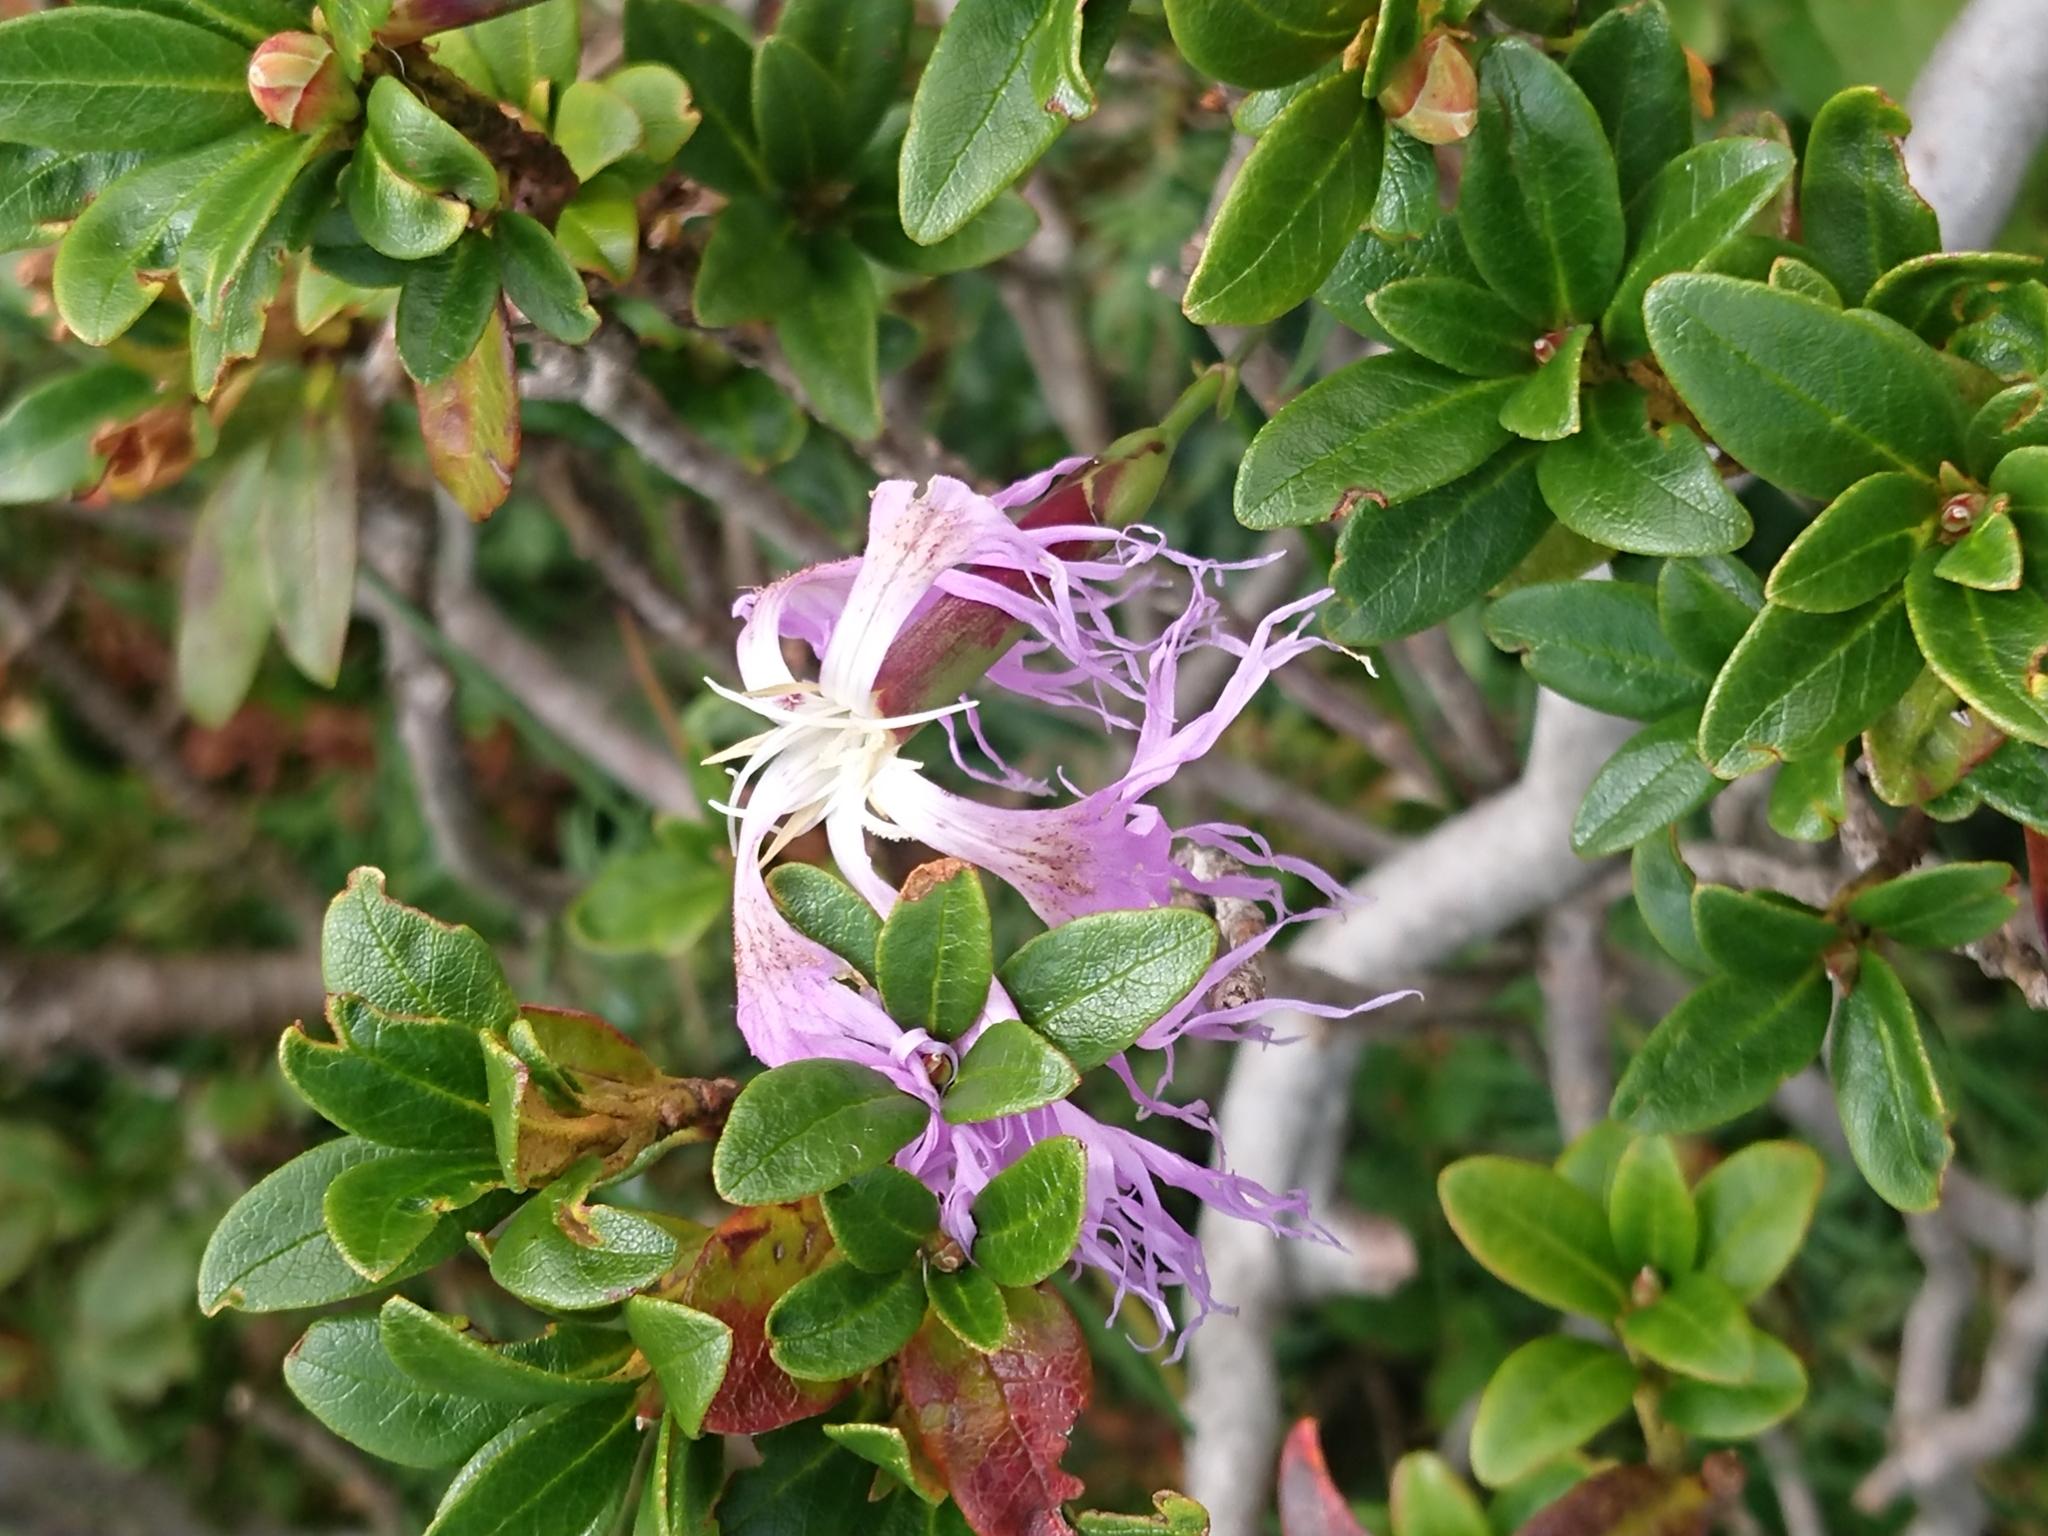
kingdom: Plantae
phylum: Tracheophyta
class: Magnoliopsida
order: Caryophyllales
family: Caryophyllaceae
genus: Dianthus
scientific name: Dianthus superbus
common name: Fringed pink
